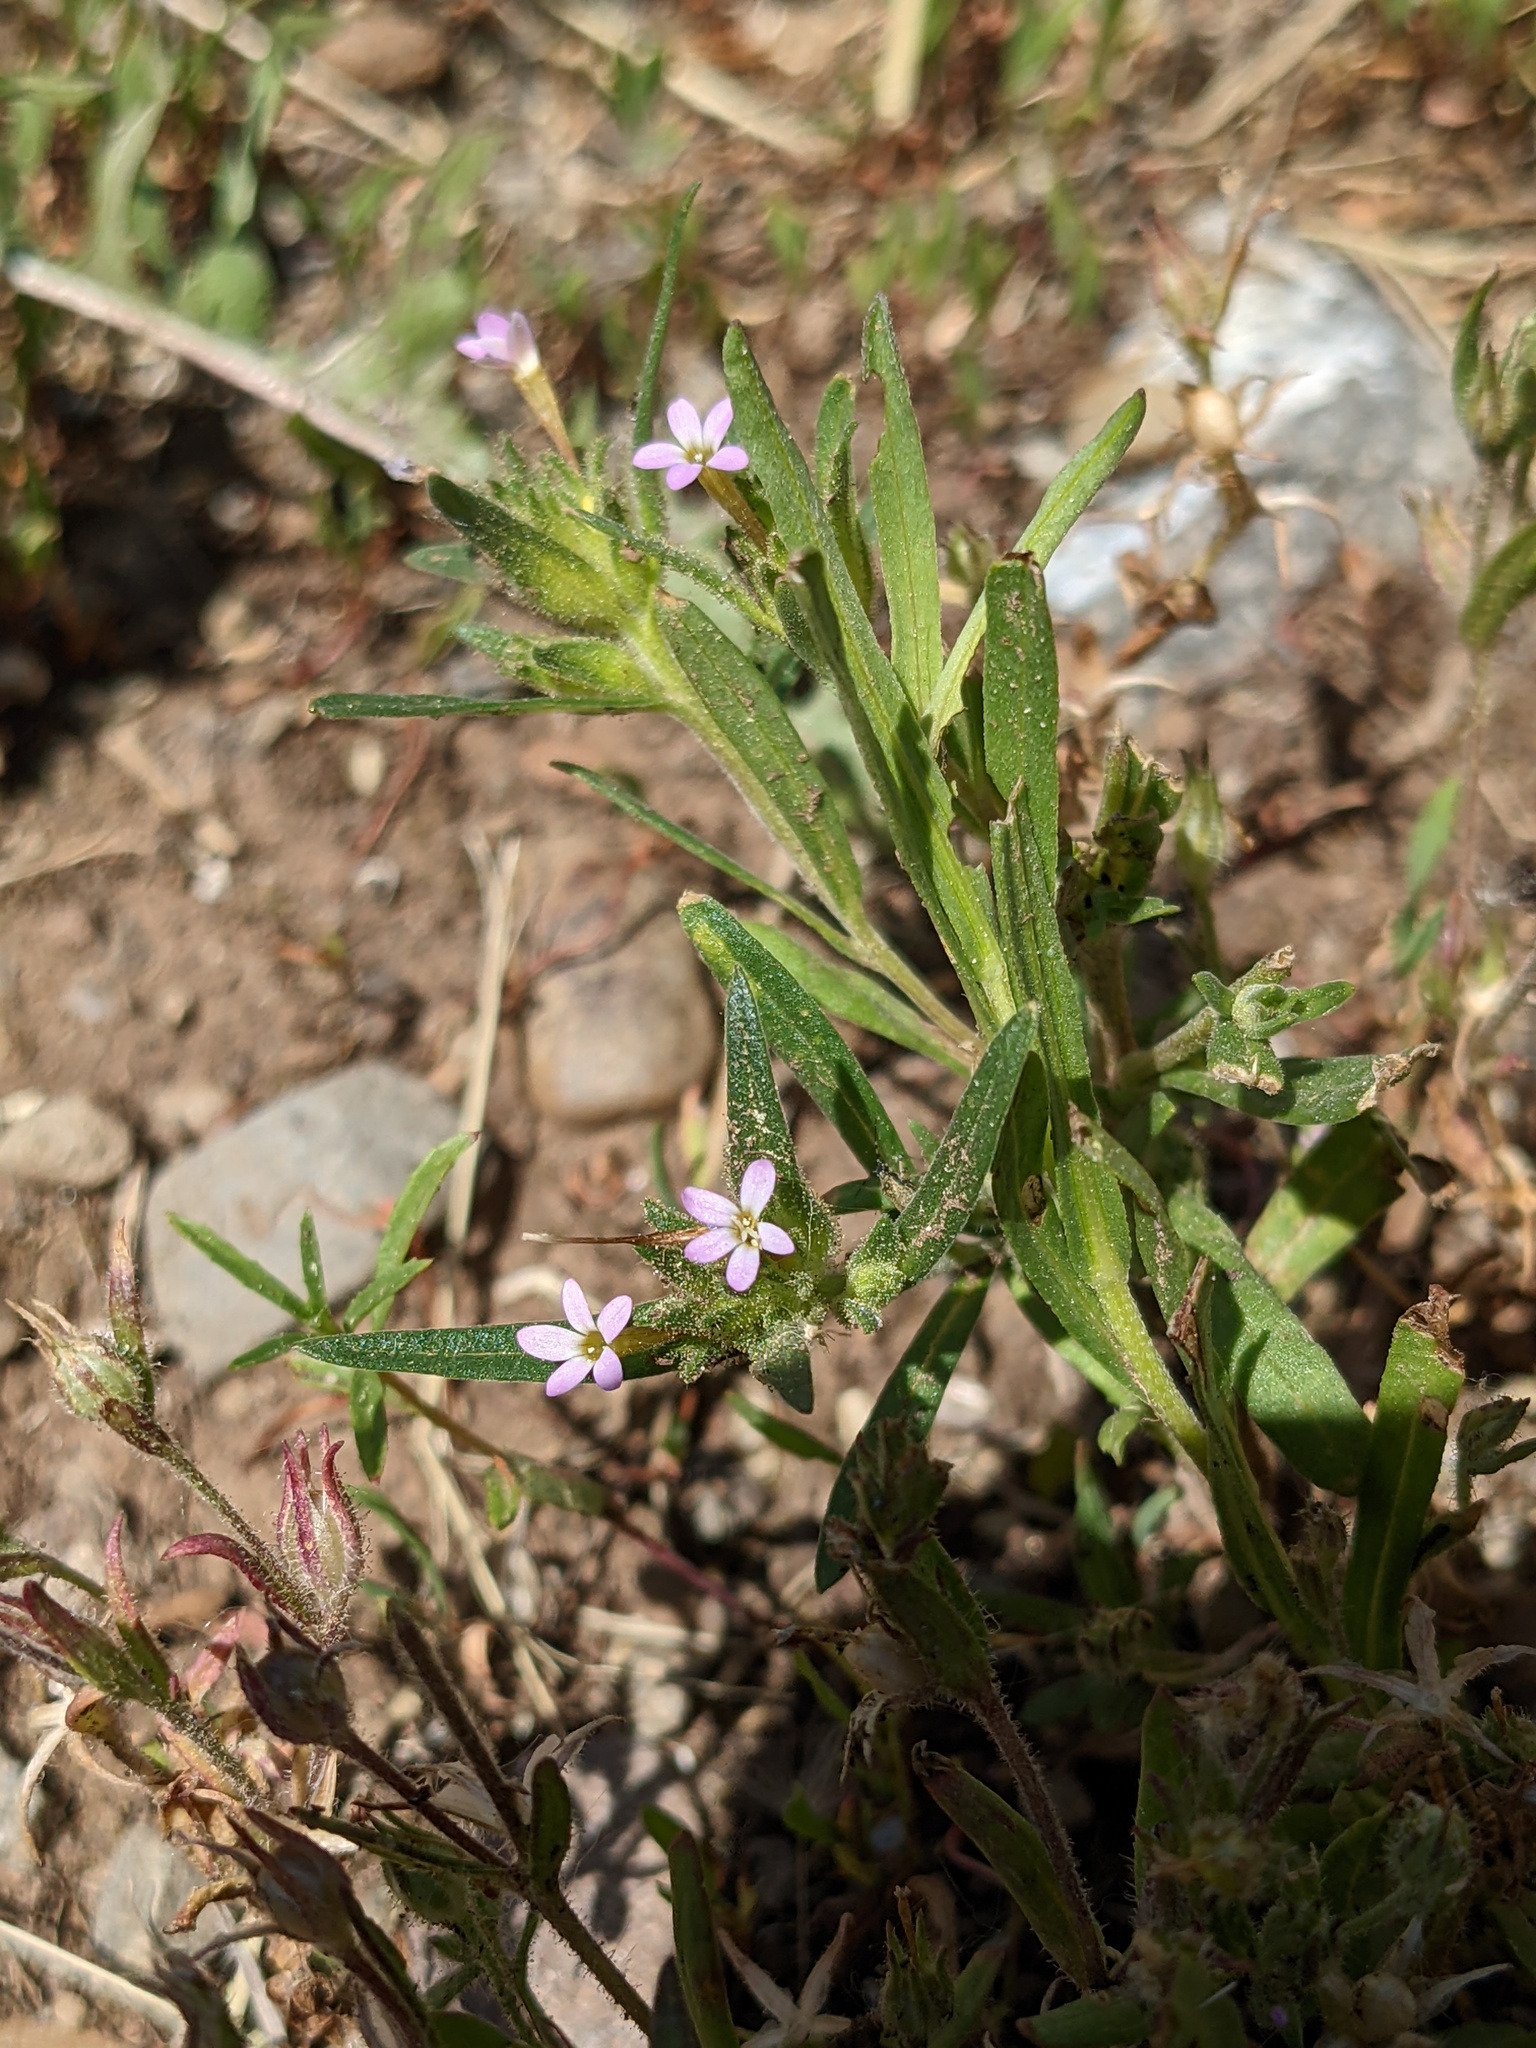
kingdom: Plantae
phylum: Tracheophyta
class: Magnoliopsida
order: Ericales
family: Polemoniaceae
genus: Collomia
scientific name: Collomia linearis
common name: Tiny trumpet
